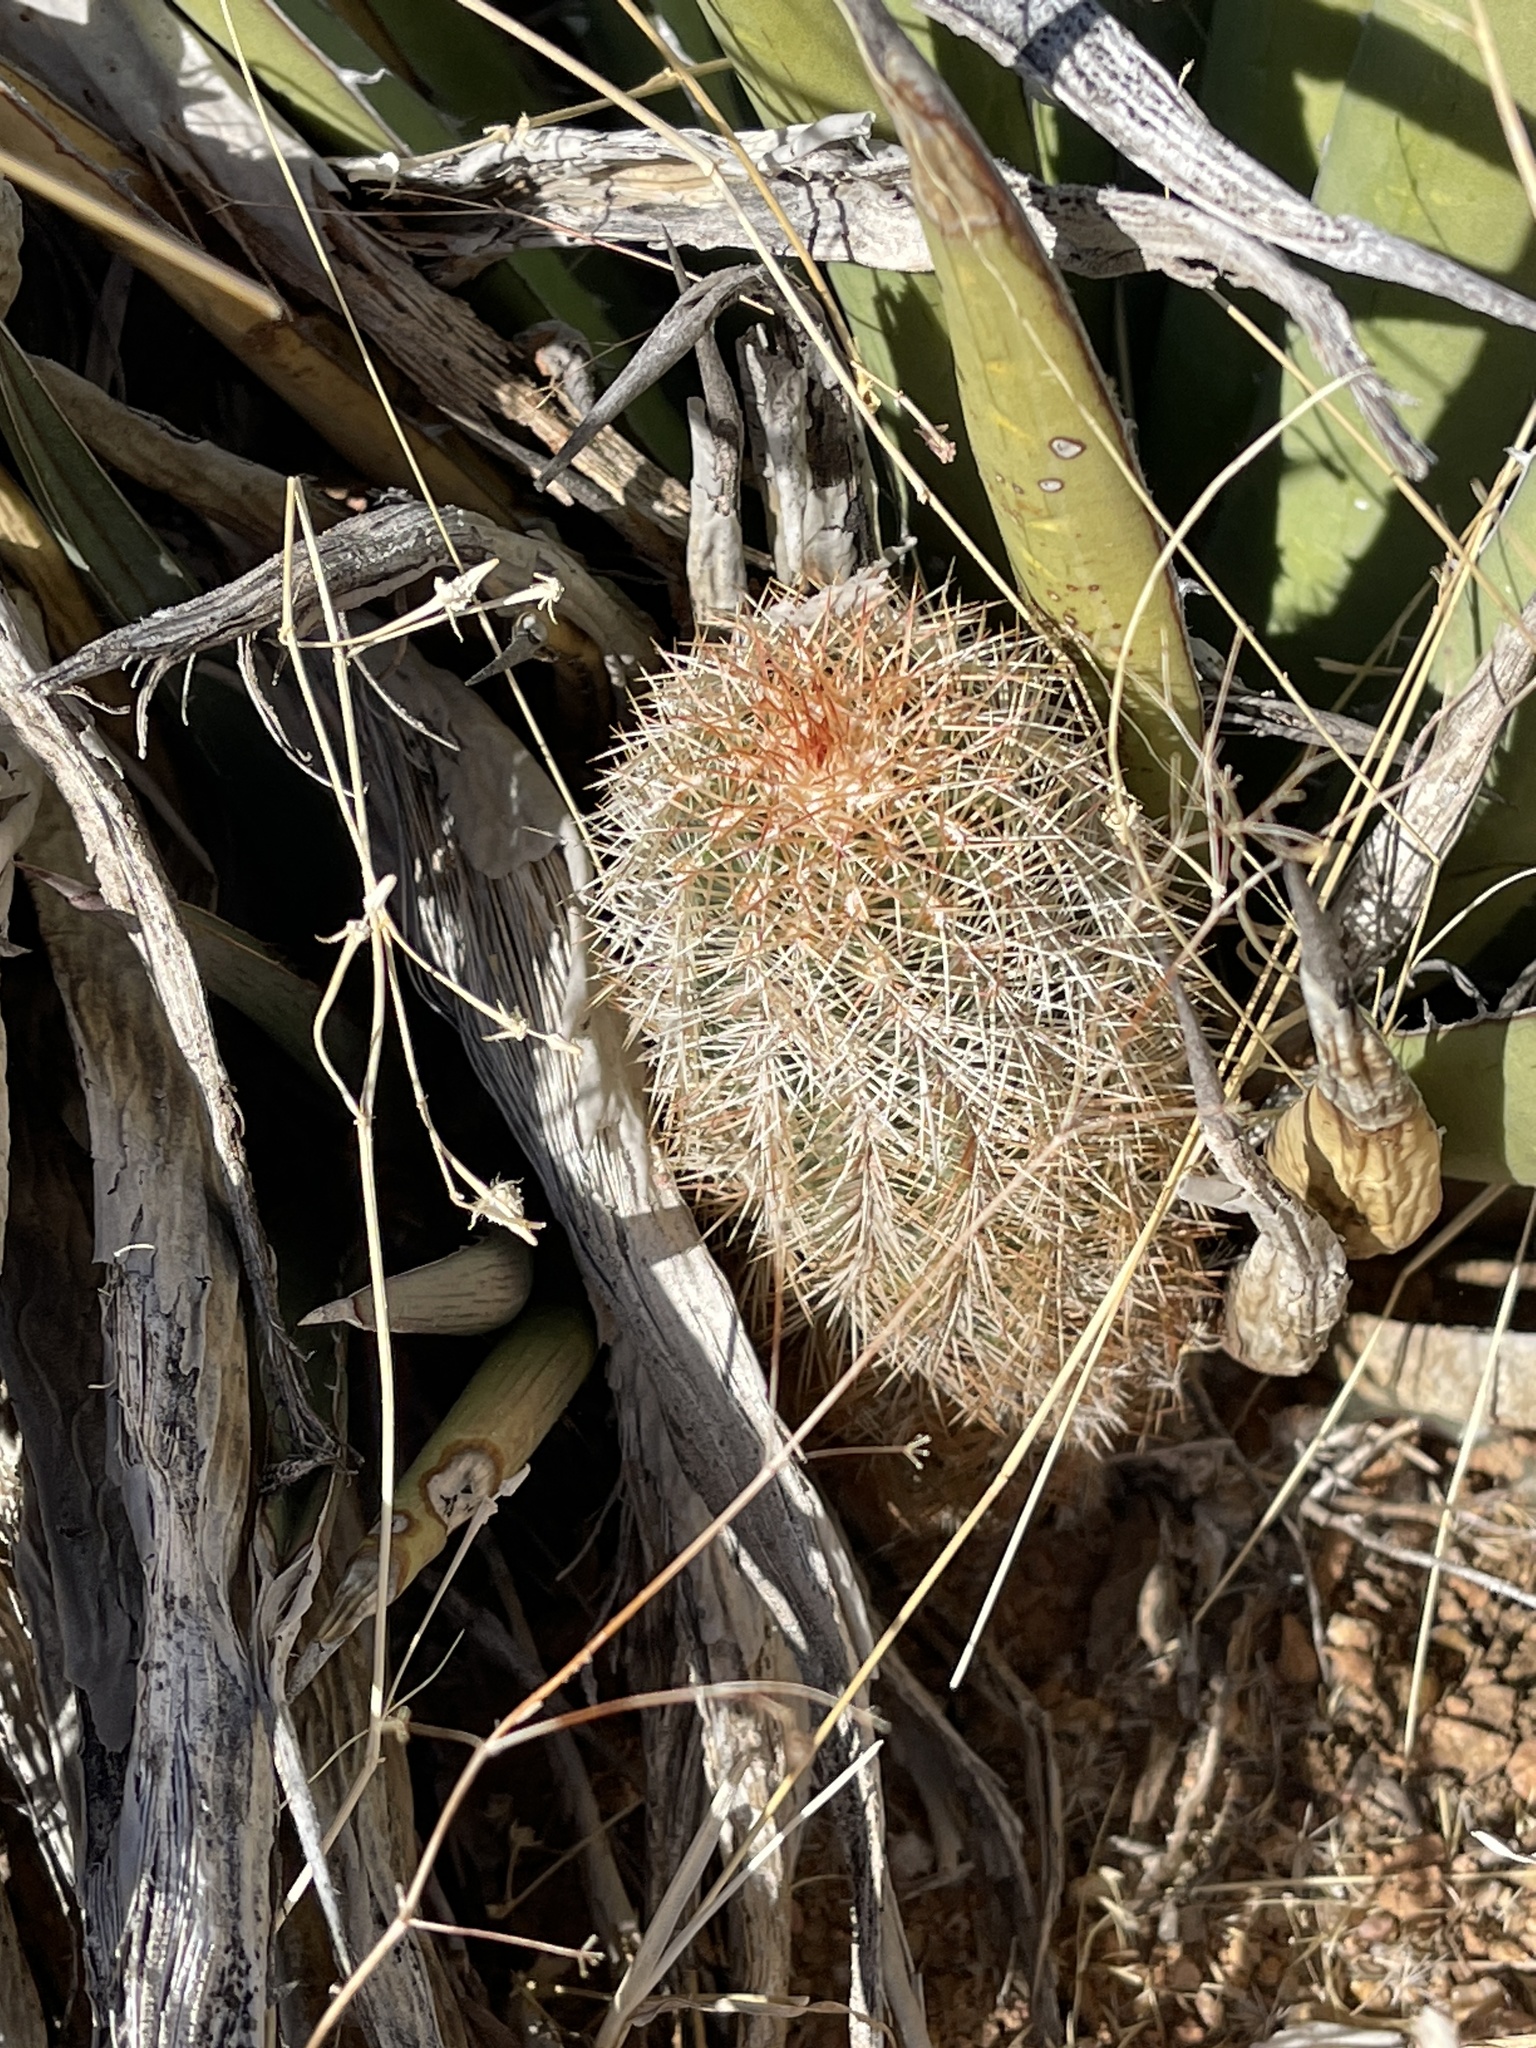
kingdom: Plantae
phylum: Tracheophyta
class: Magnoliopsida
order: Caryophyllales
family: Cactaceae
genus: Echinocereus
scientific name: Echinocereus viridiflorus
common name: Nylon hedgehog cactus
